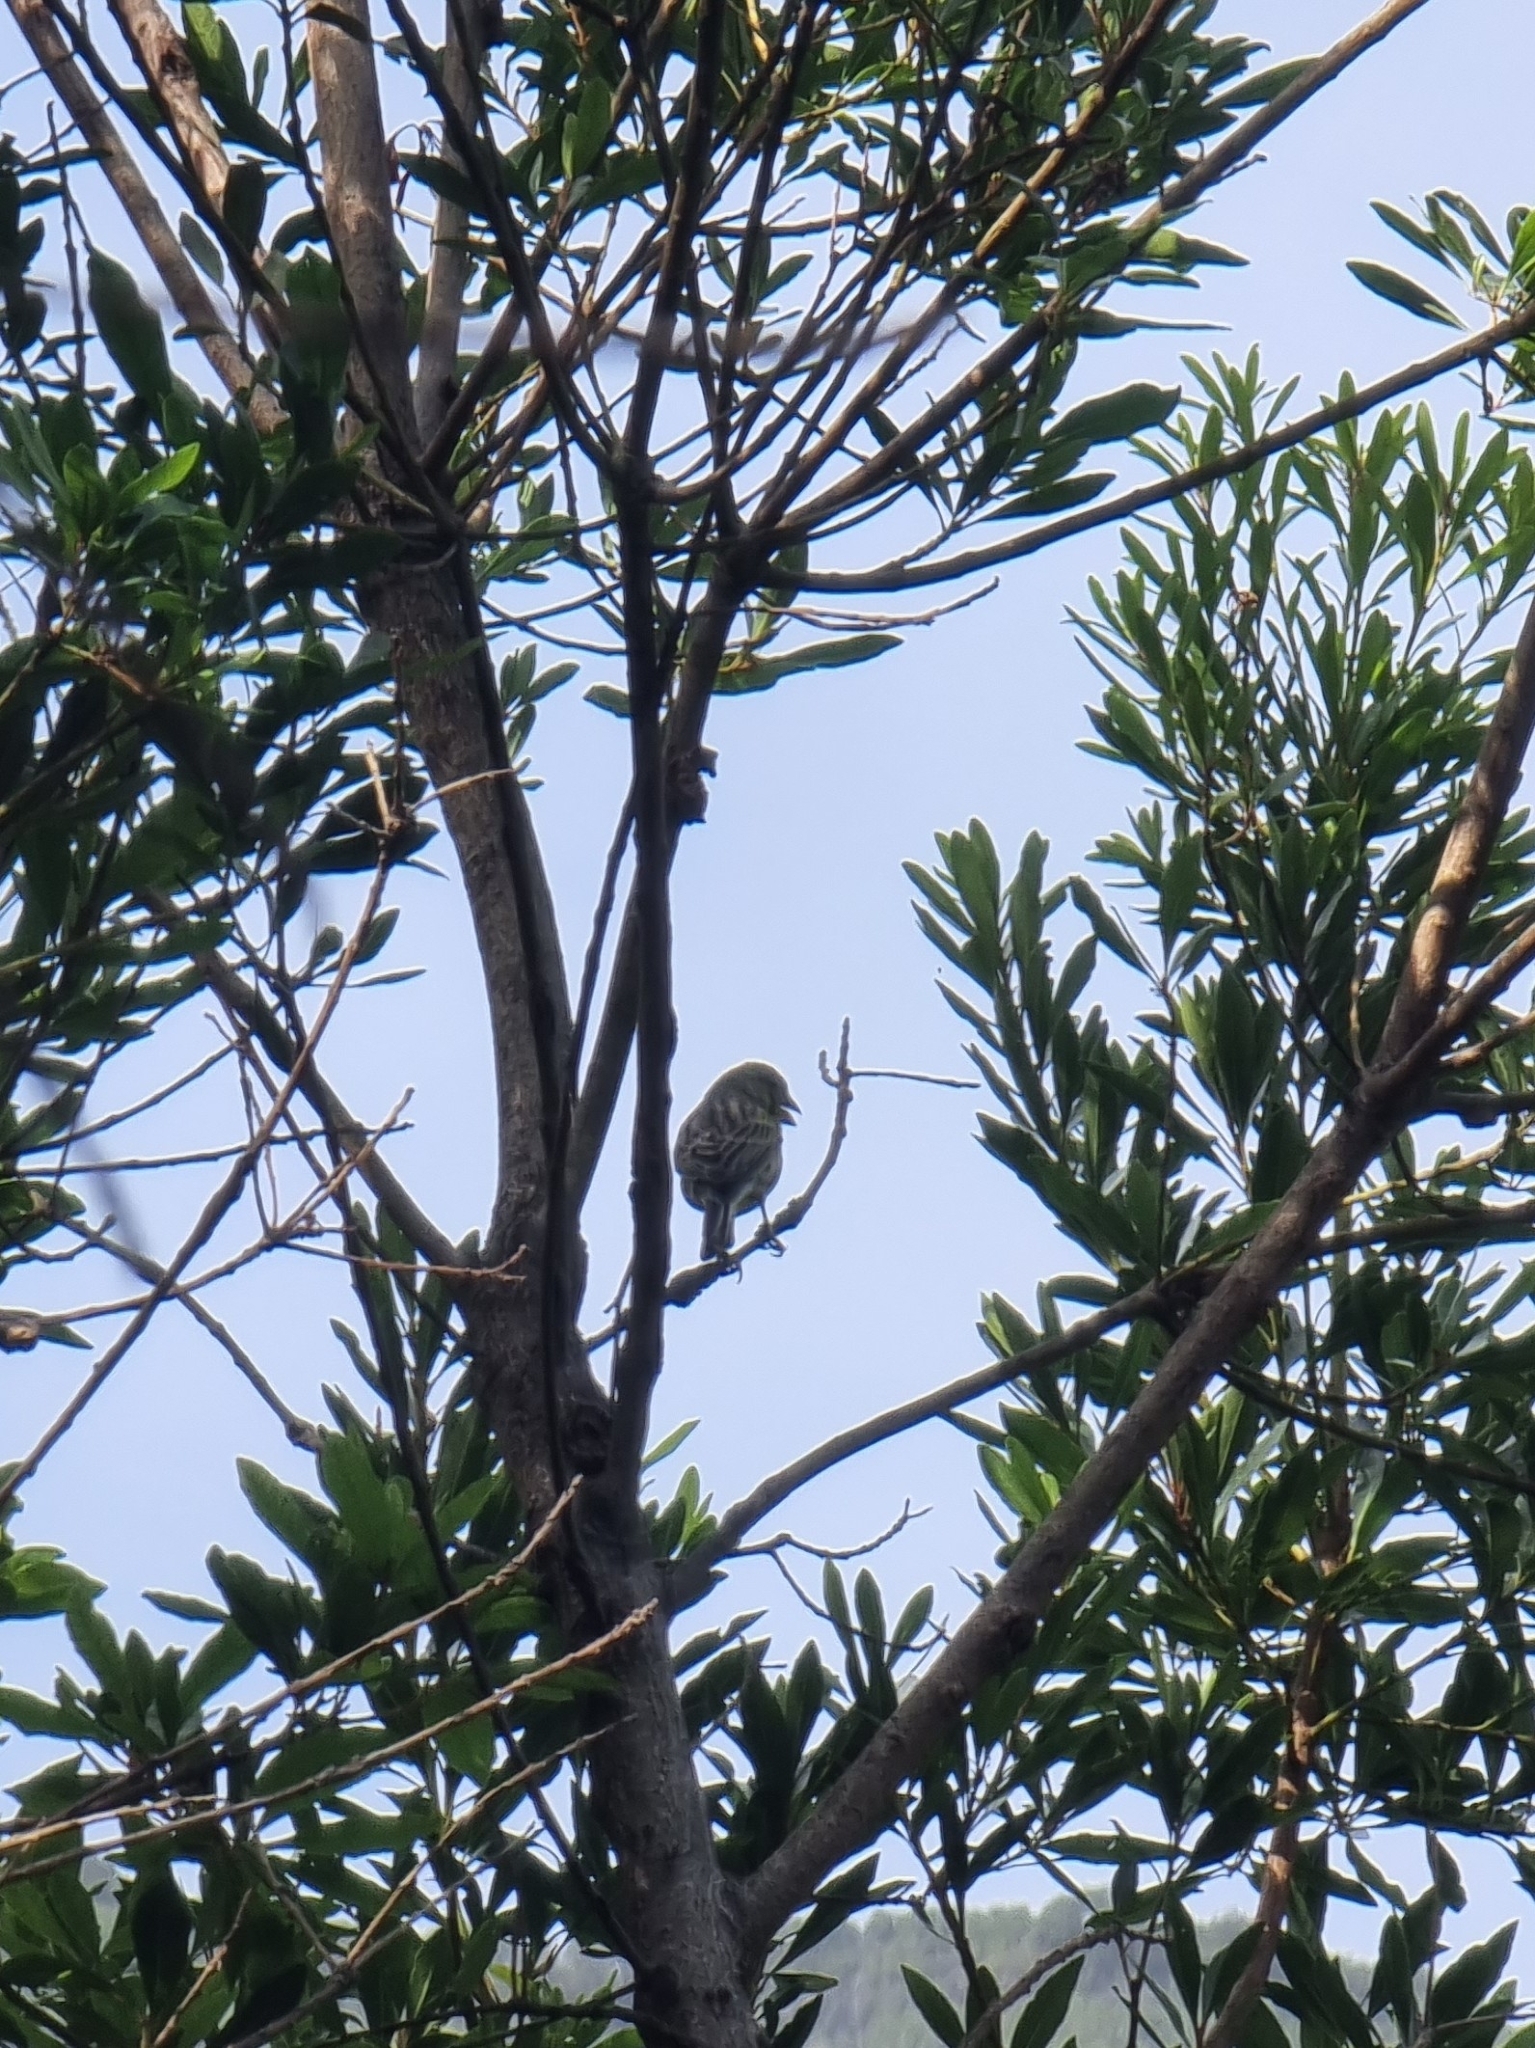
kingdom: Animalia
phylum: Chordata
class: Aves
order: Passeriformes
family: Fringillidae
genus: Serinus
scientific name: Serinus canaria
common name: Atlantic canary
